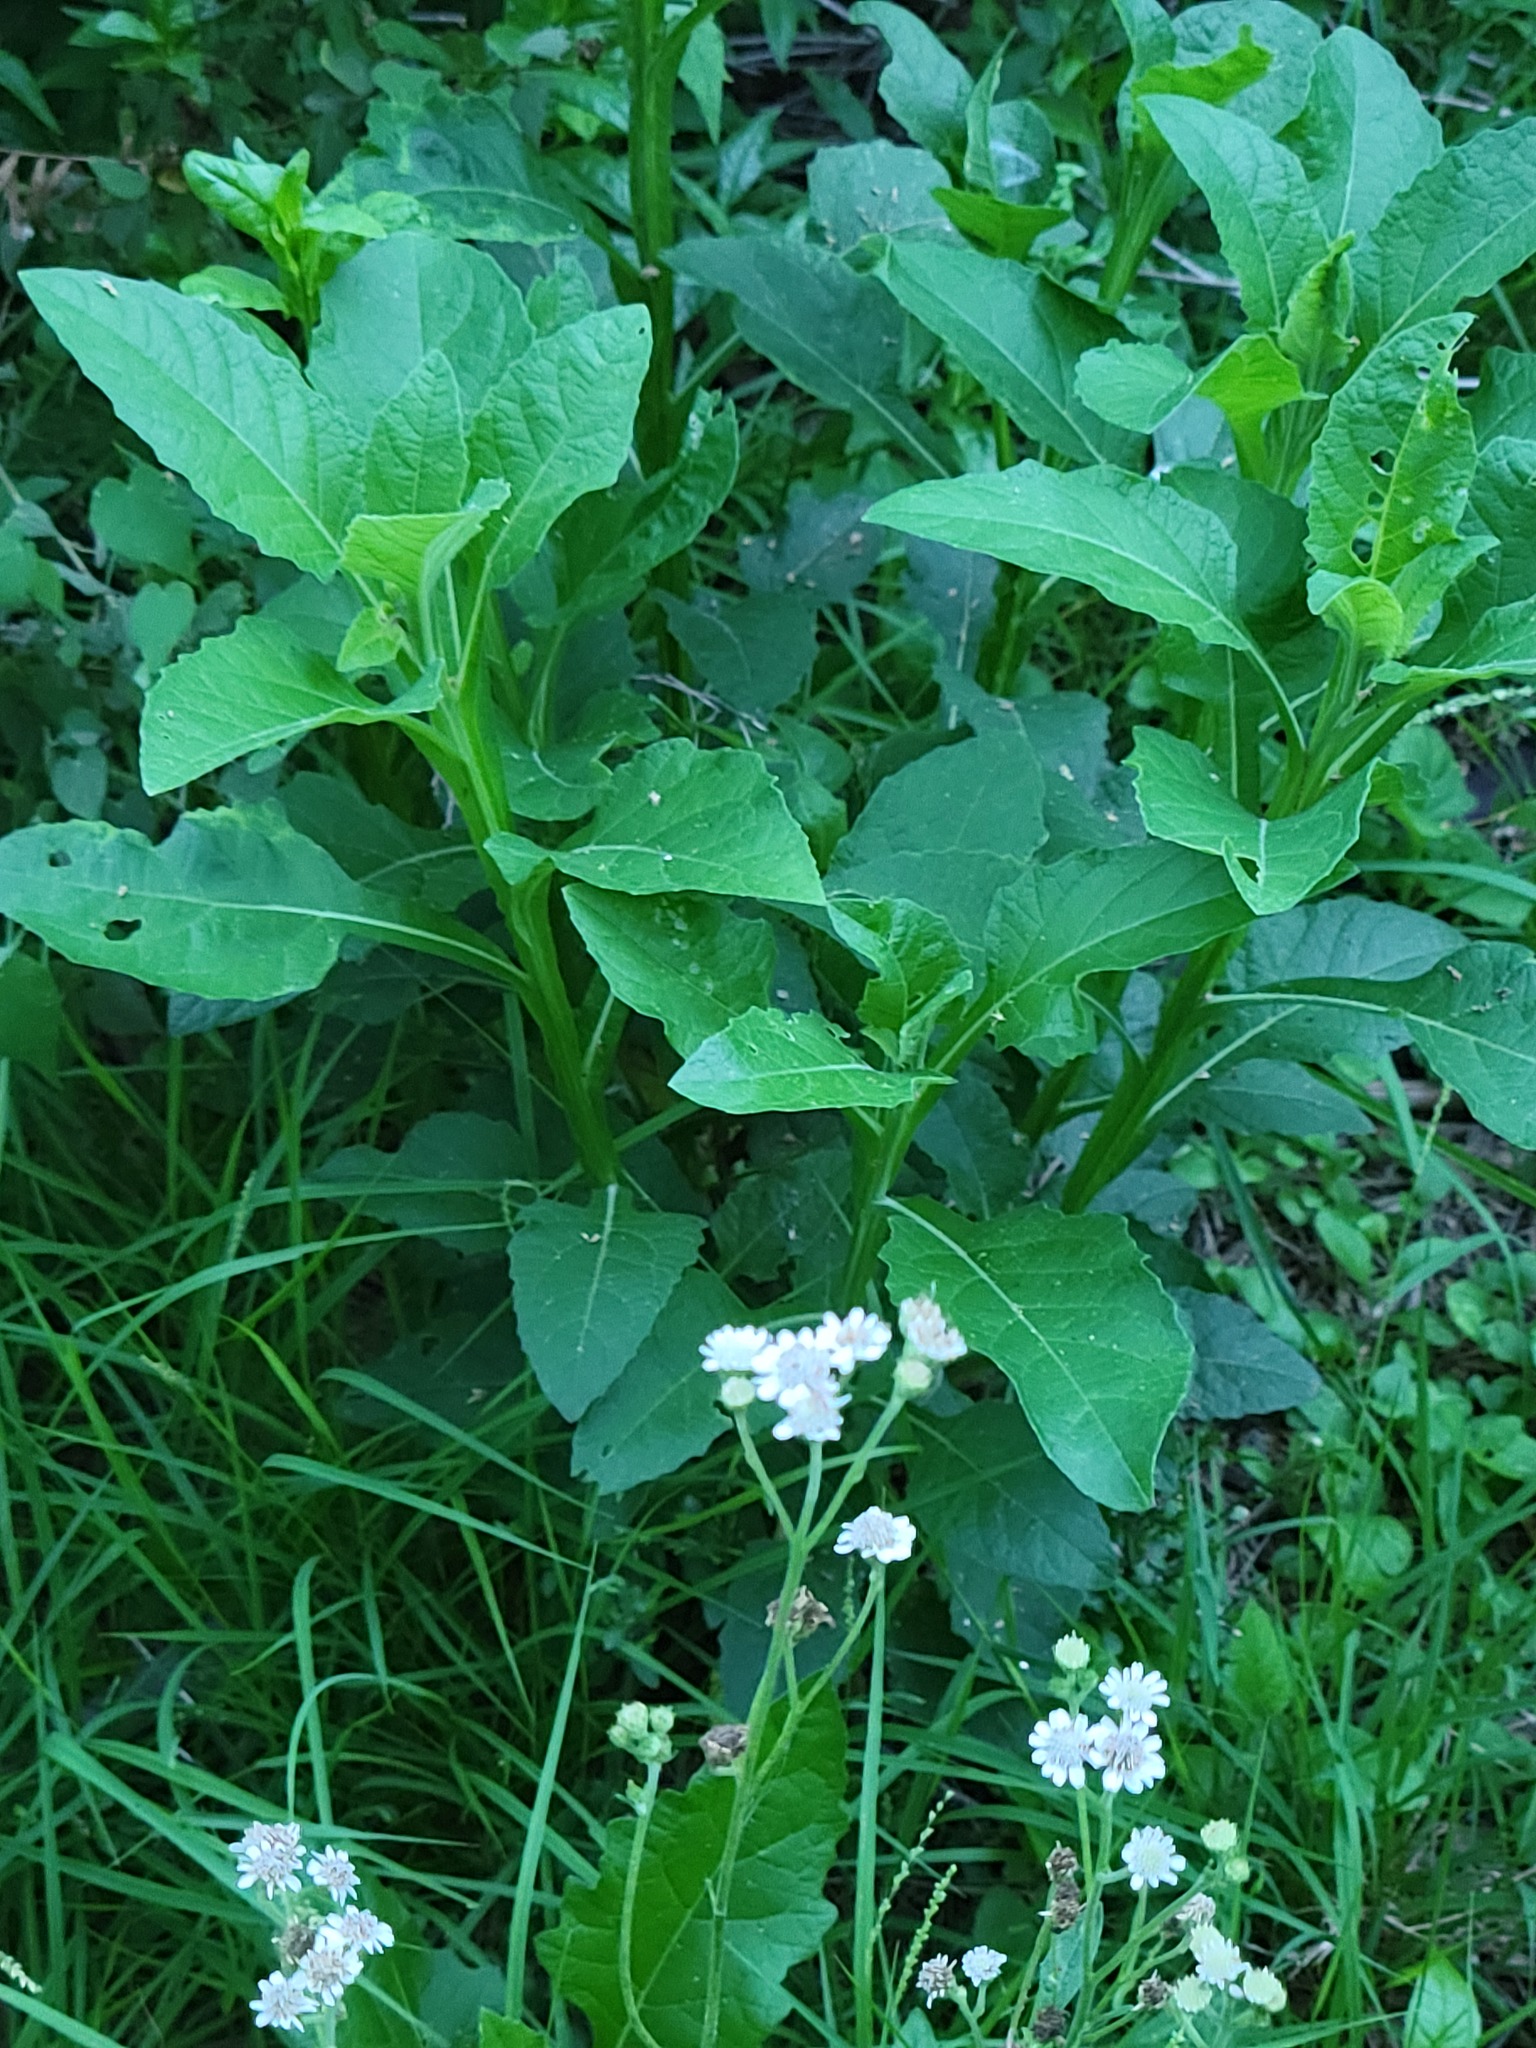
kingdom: Plantae
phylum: Tracheophyta
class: Magnoliopsida
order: Asterales
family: Asteraceae
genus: Verbesina
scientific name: Verbesina microptera
